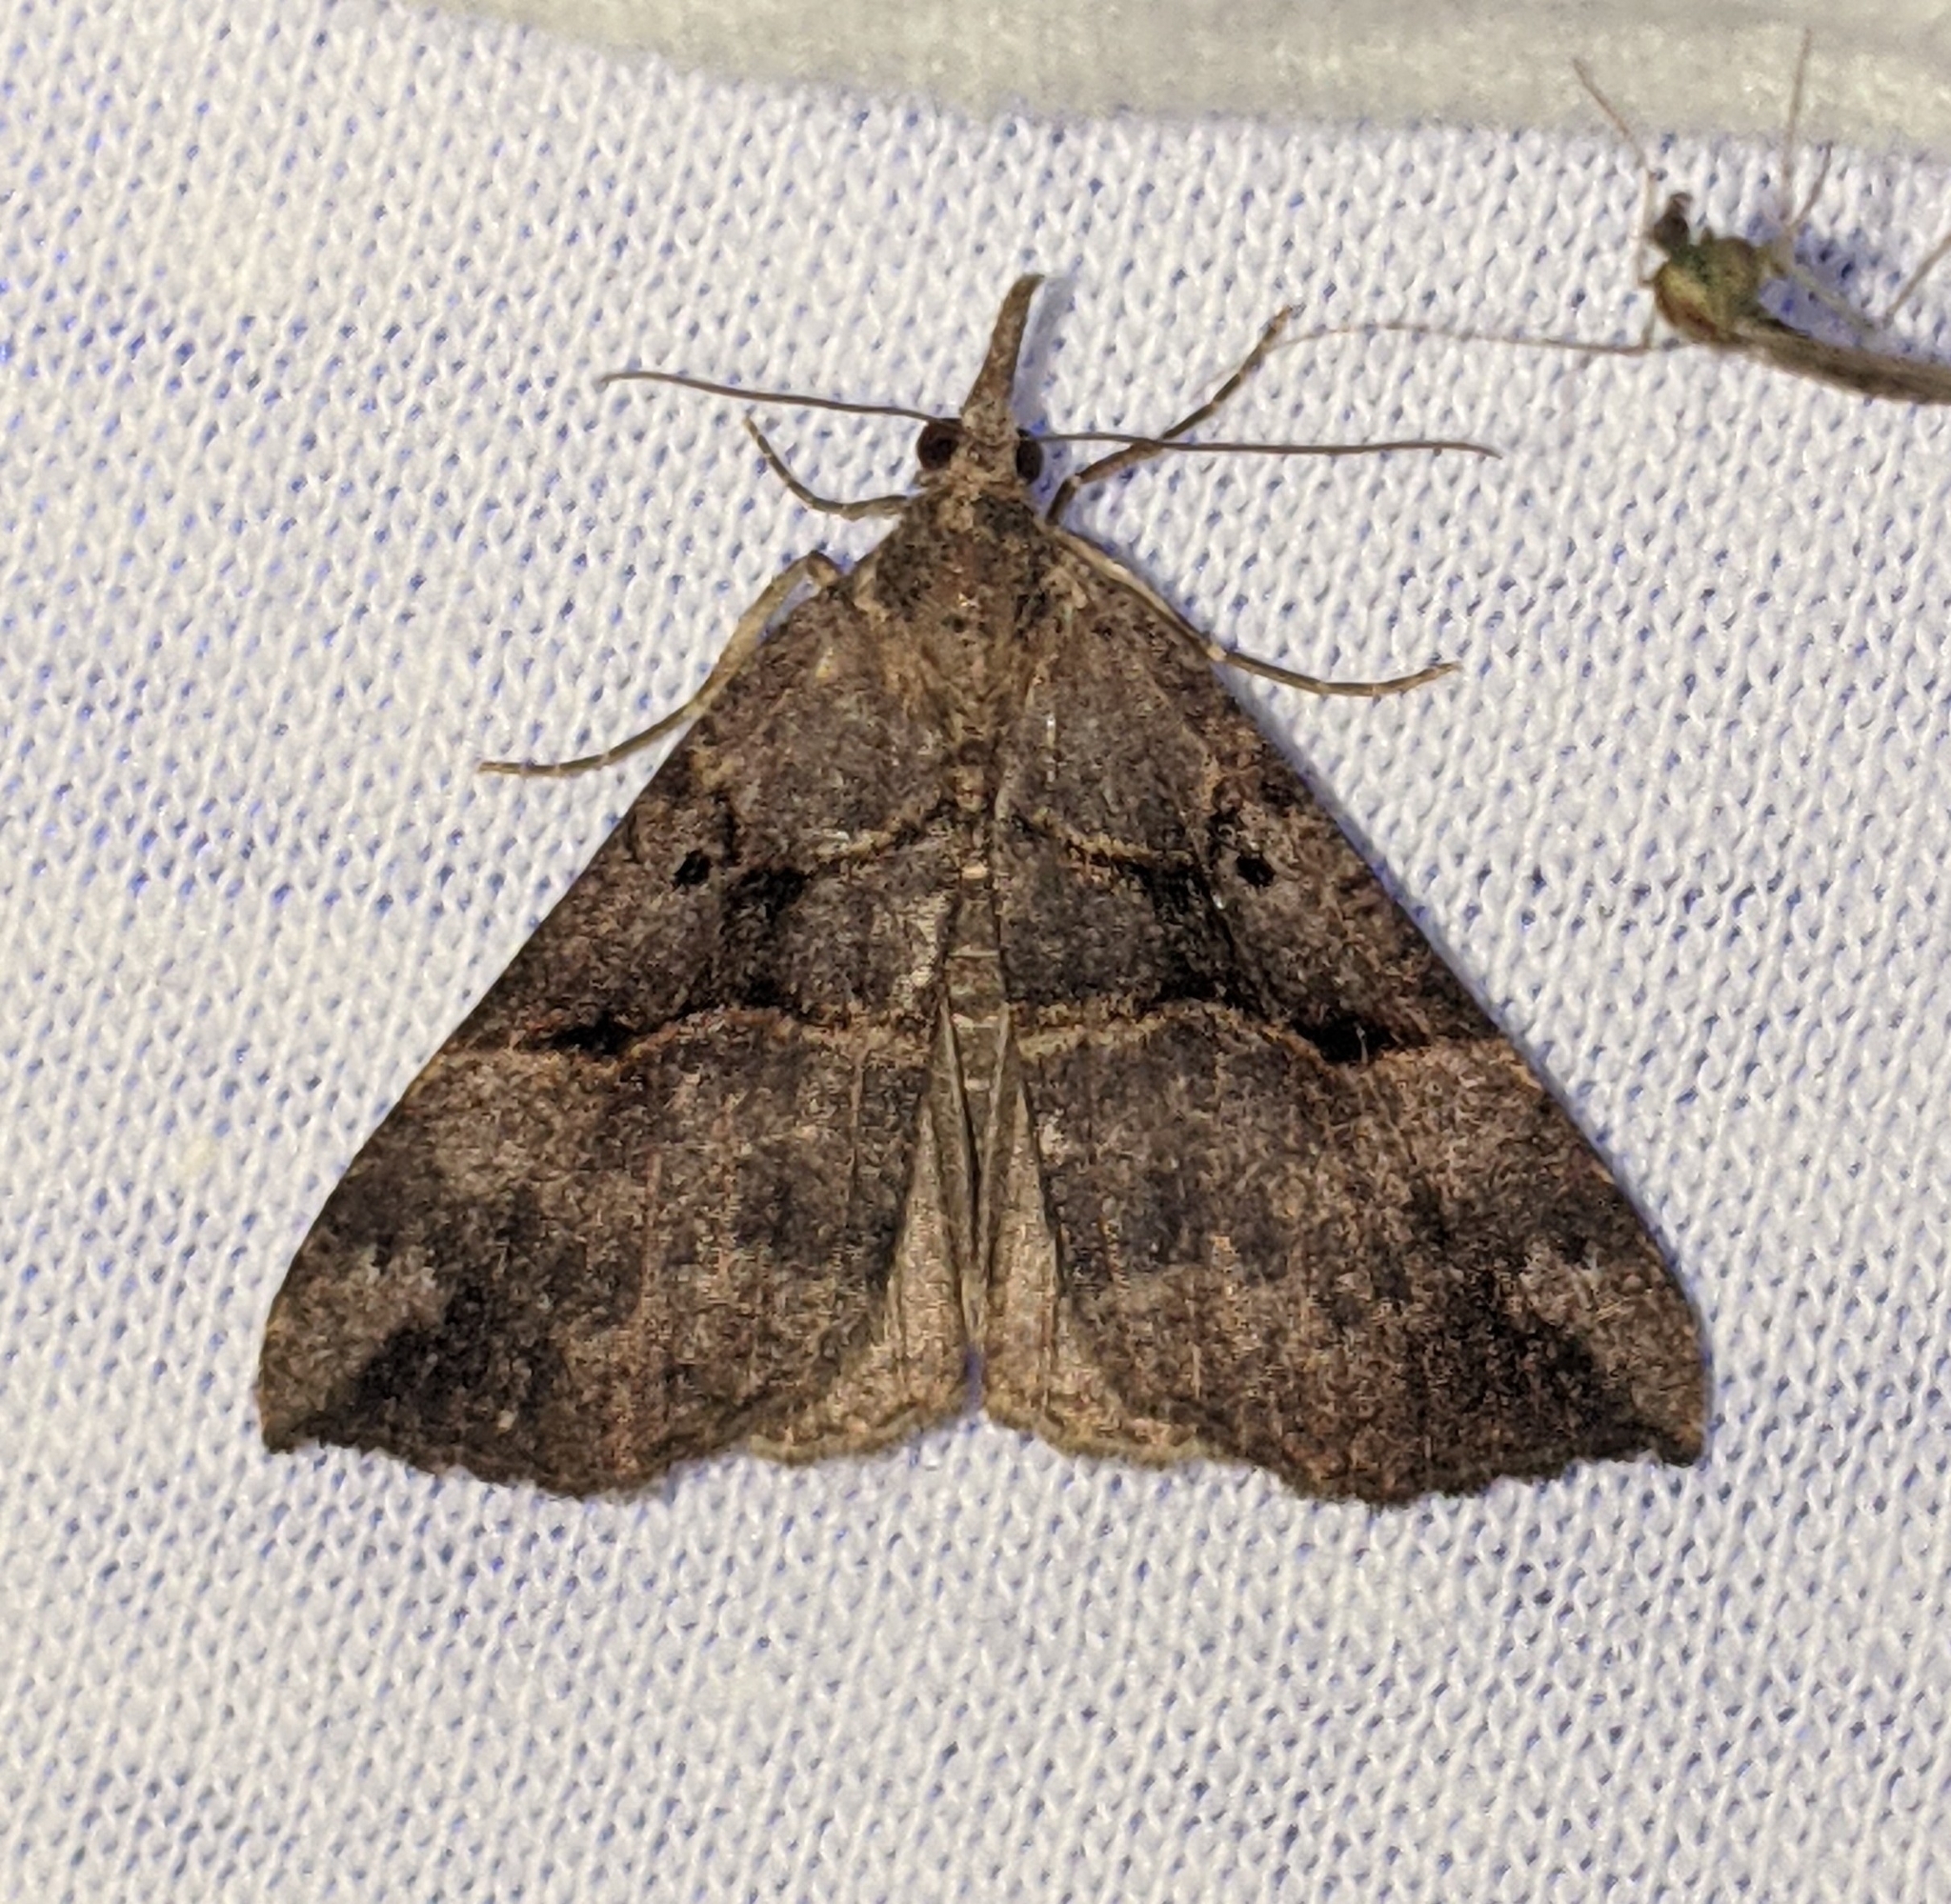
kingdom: Animalia
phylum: Arthropoda
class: Insecta
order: Lepidoptera
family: Erebidae
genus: Hypena
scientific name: Hypena edictalis
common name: Large snout
